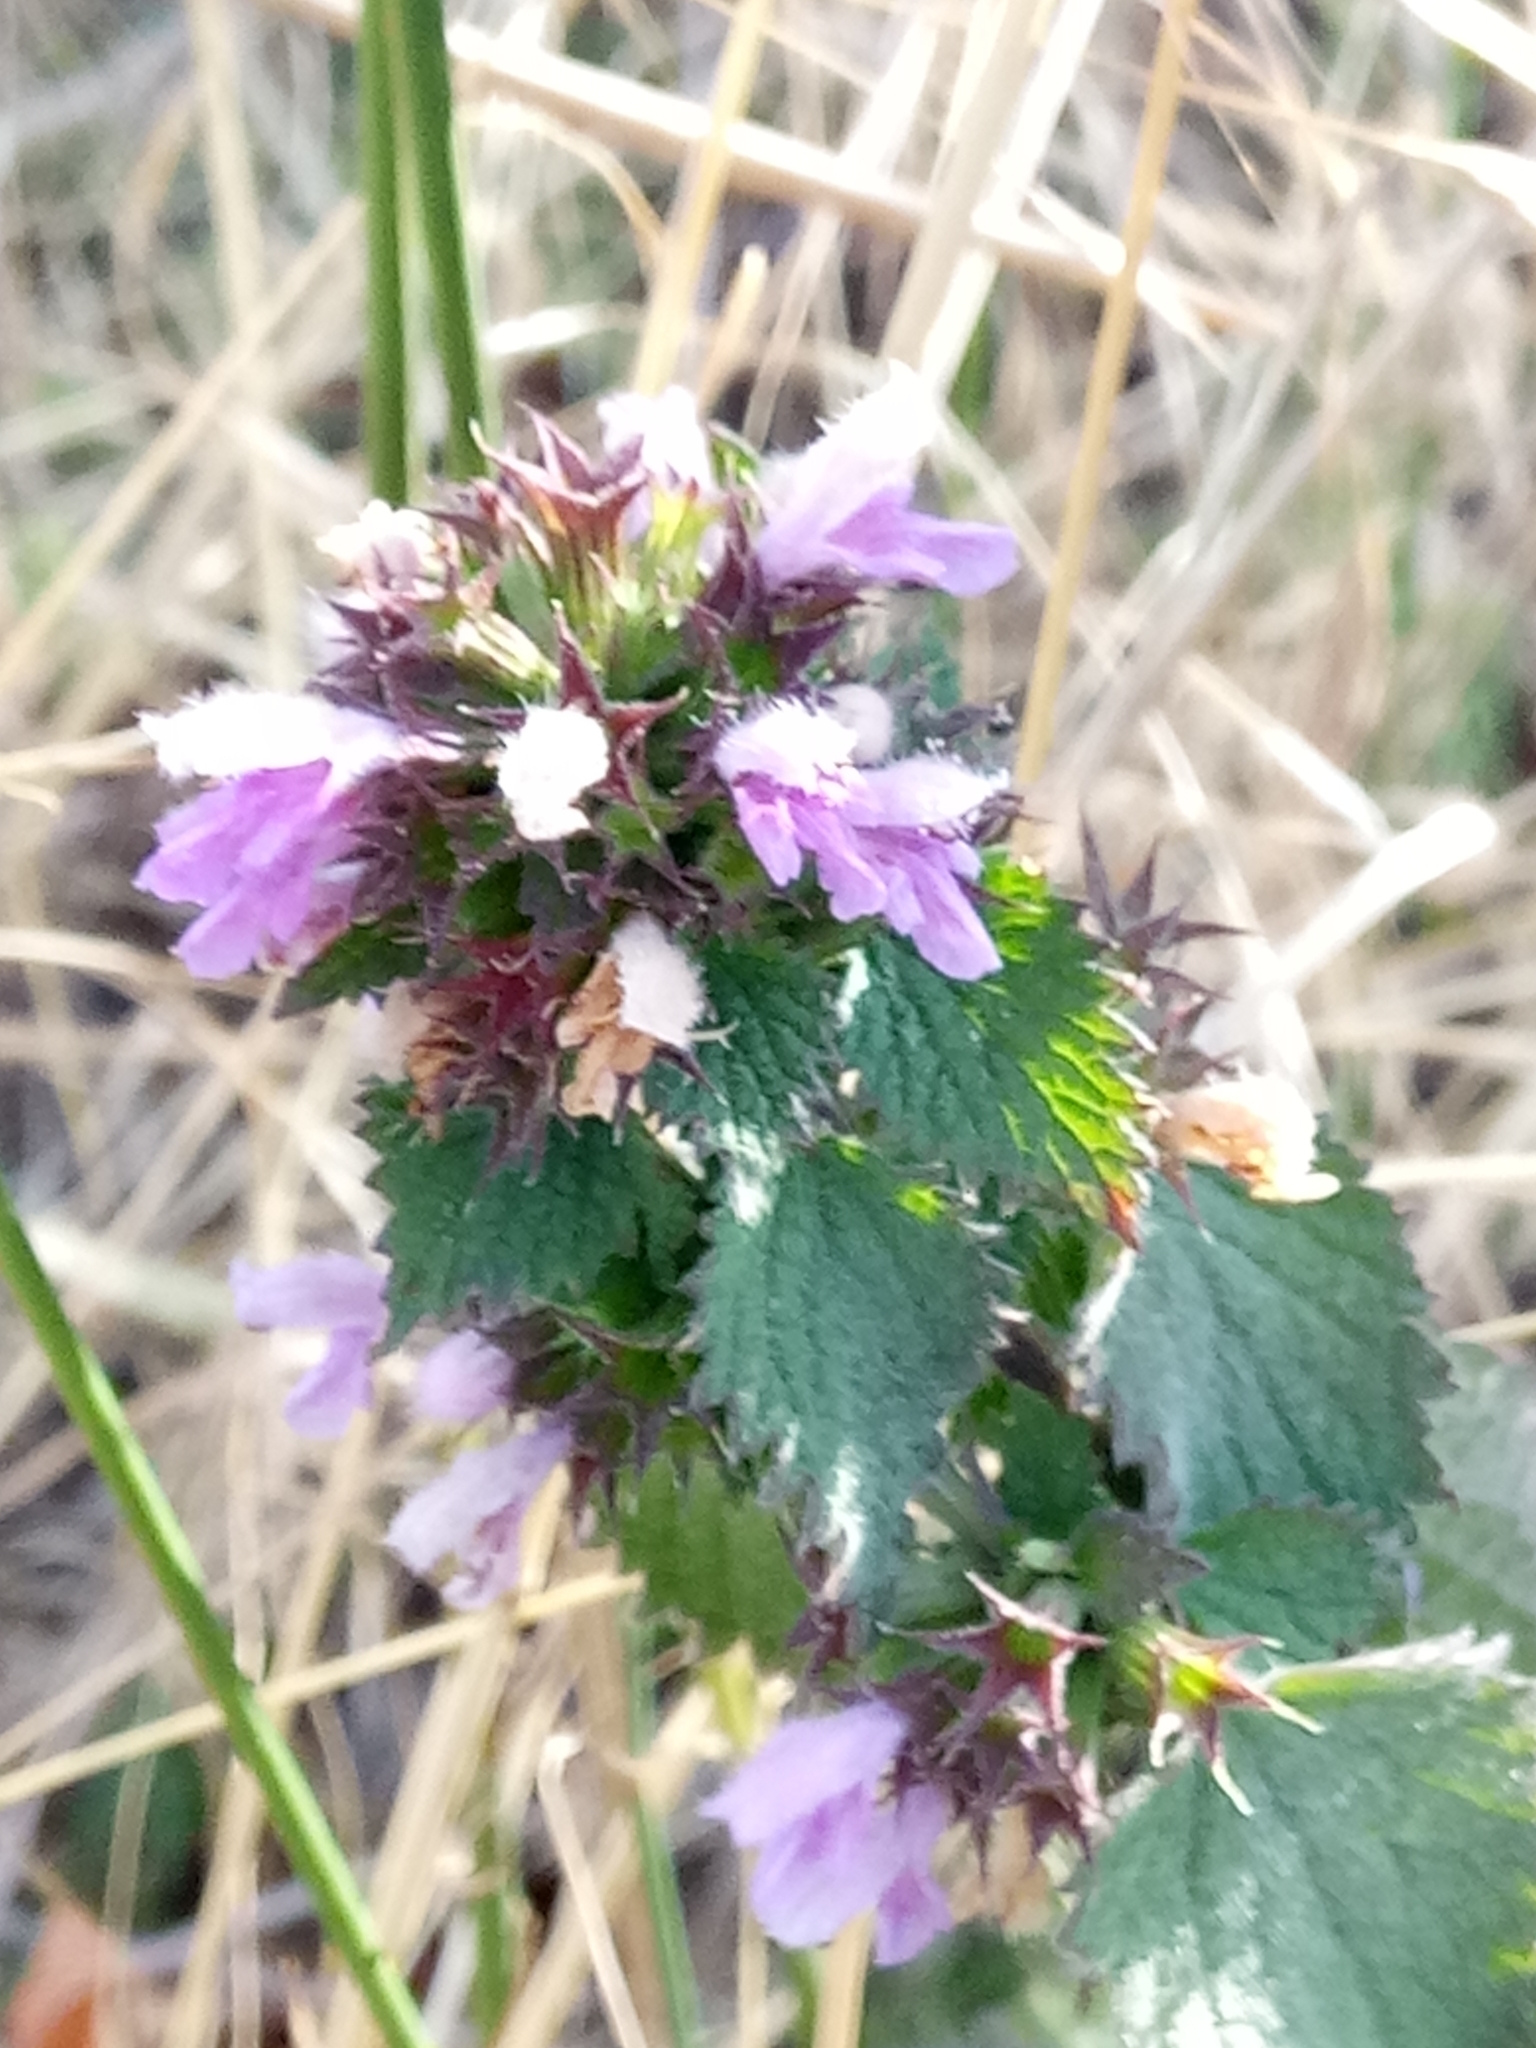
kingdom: Plantae
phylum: Tracheophyta
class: Magnoliopsida
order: Lamiales
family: Lamiaceae
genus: Ballota
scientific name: Ballota nigra
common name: Black horehound
